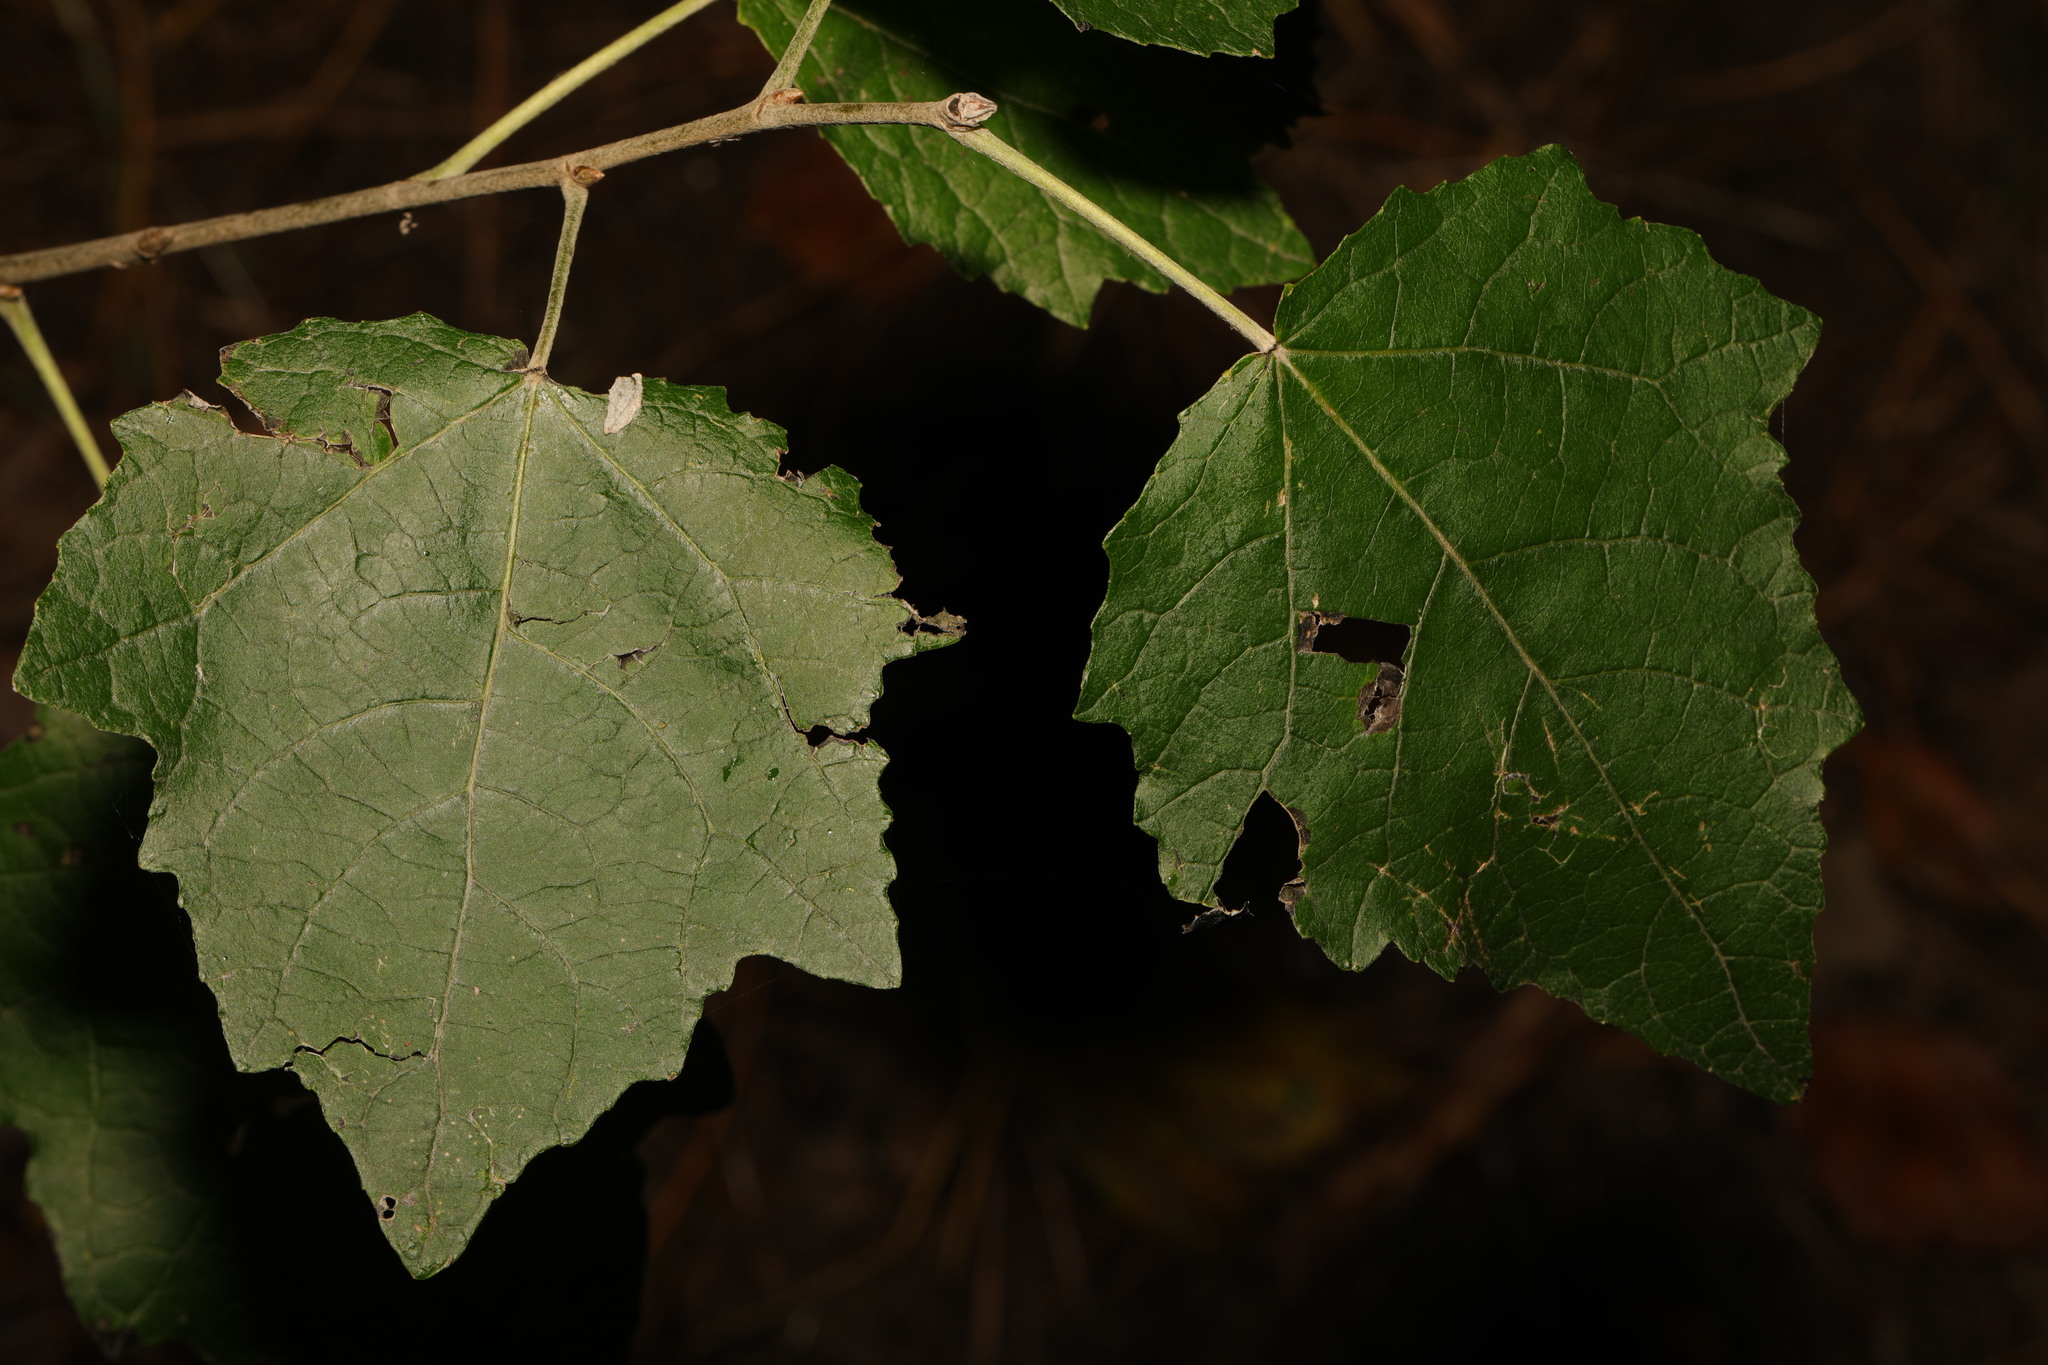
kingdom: Plantae
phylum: Tracheophyta
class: Magnoliopsida
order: Malpighiales
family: Salicaceae
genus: Populus
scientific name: Populus alba
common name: White poplar
